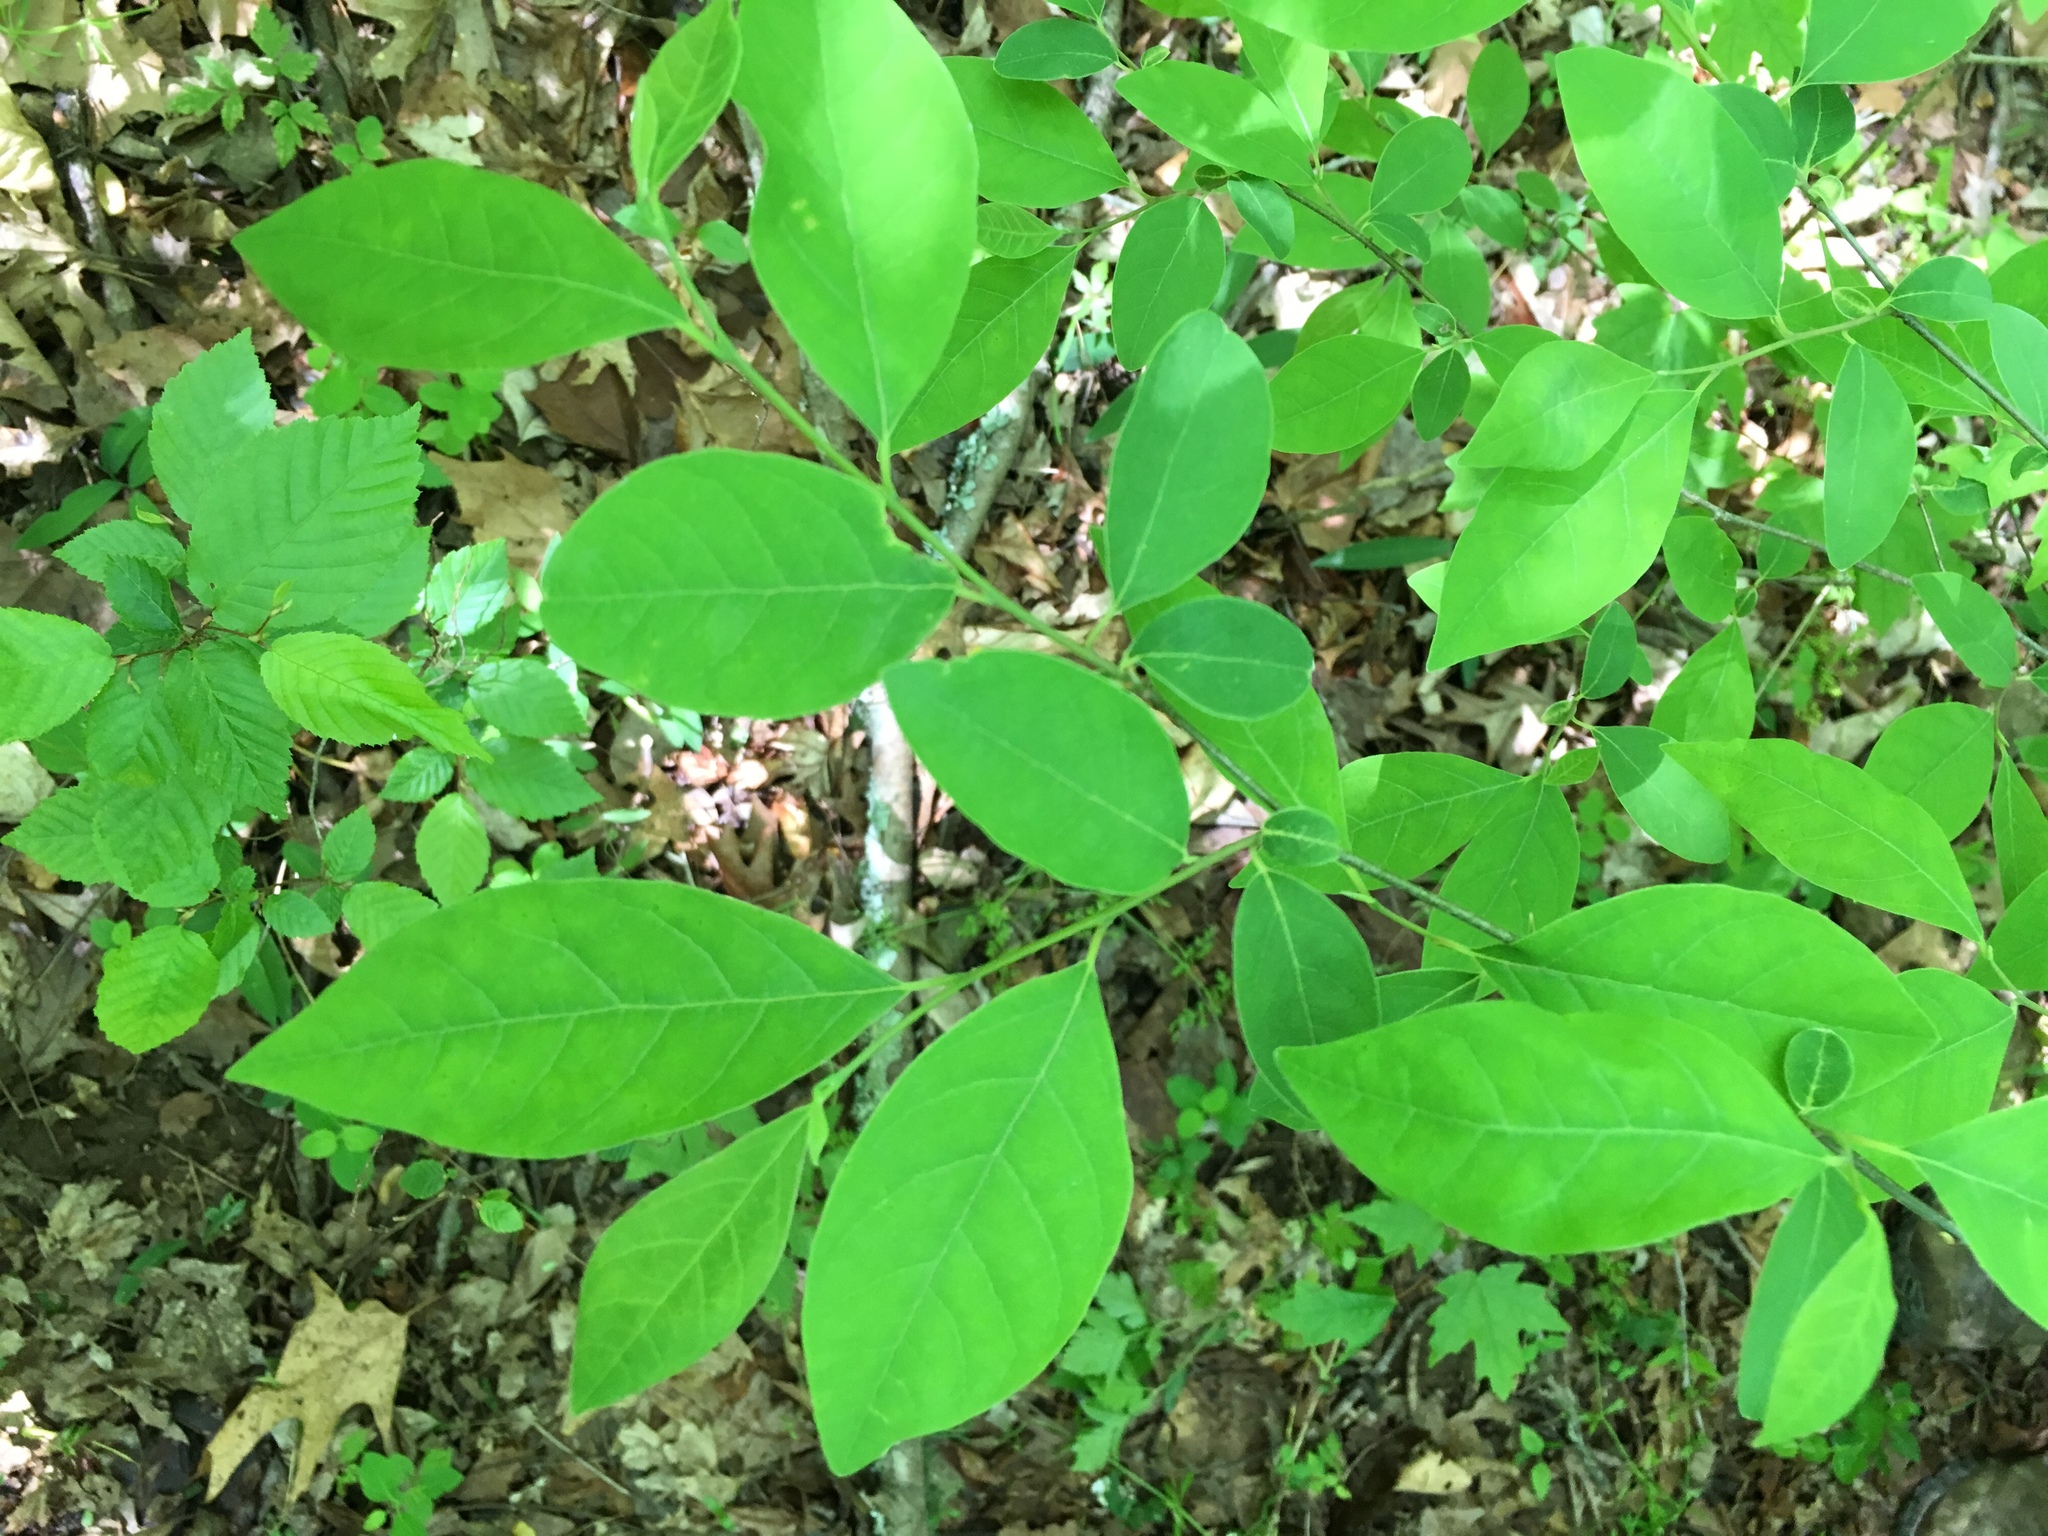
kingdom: Plantae
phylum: Tracheophyta
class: Magnoliopsida
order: Laurales
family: Lauraceae
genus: Lindera
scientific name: Lindera benzoin
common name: Spicebush
